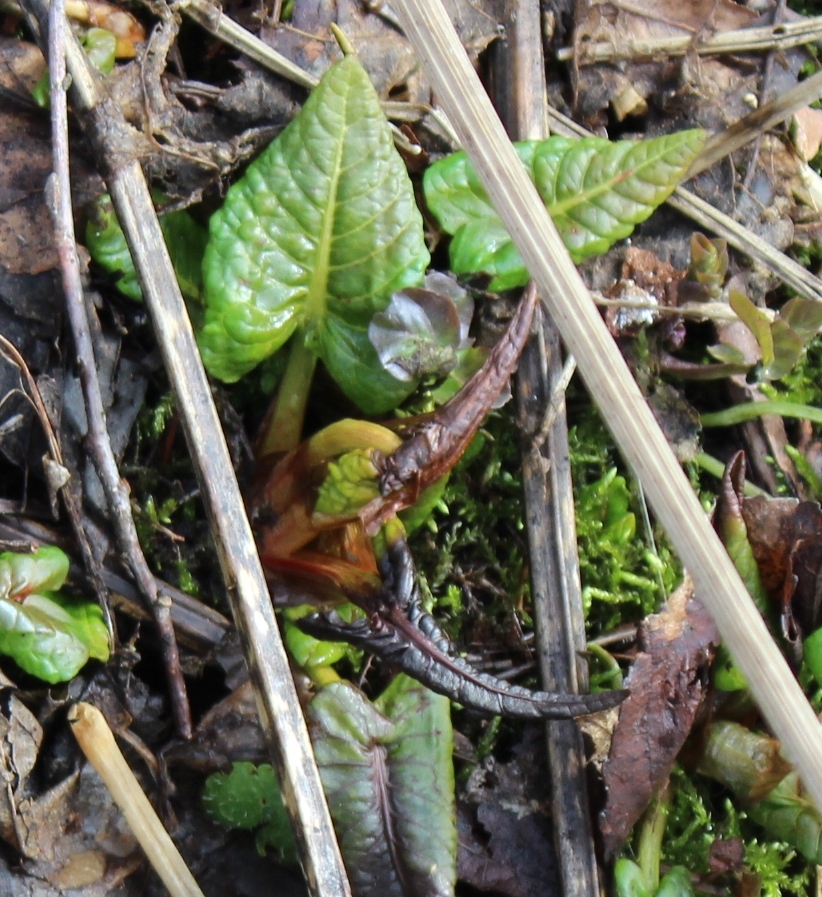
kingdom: Plantae
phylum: Tracheophyta
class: Magnoliopsida
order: Caryophyllales
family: Polygonaceae
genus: Rumex
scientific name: Rumex obtusifolius
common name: Bitter dock
